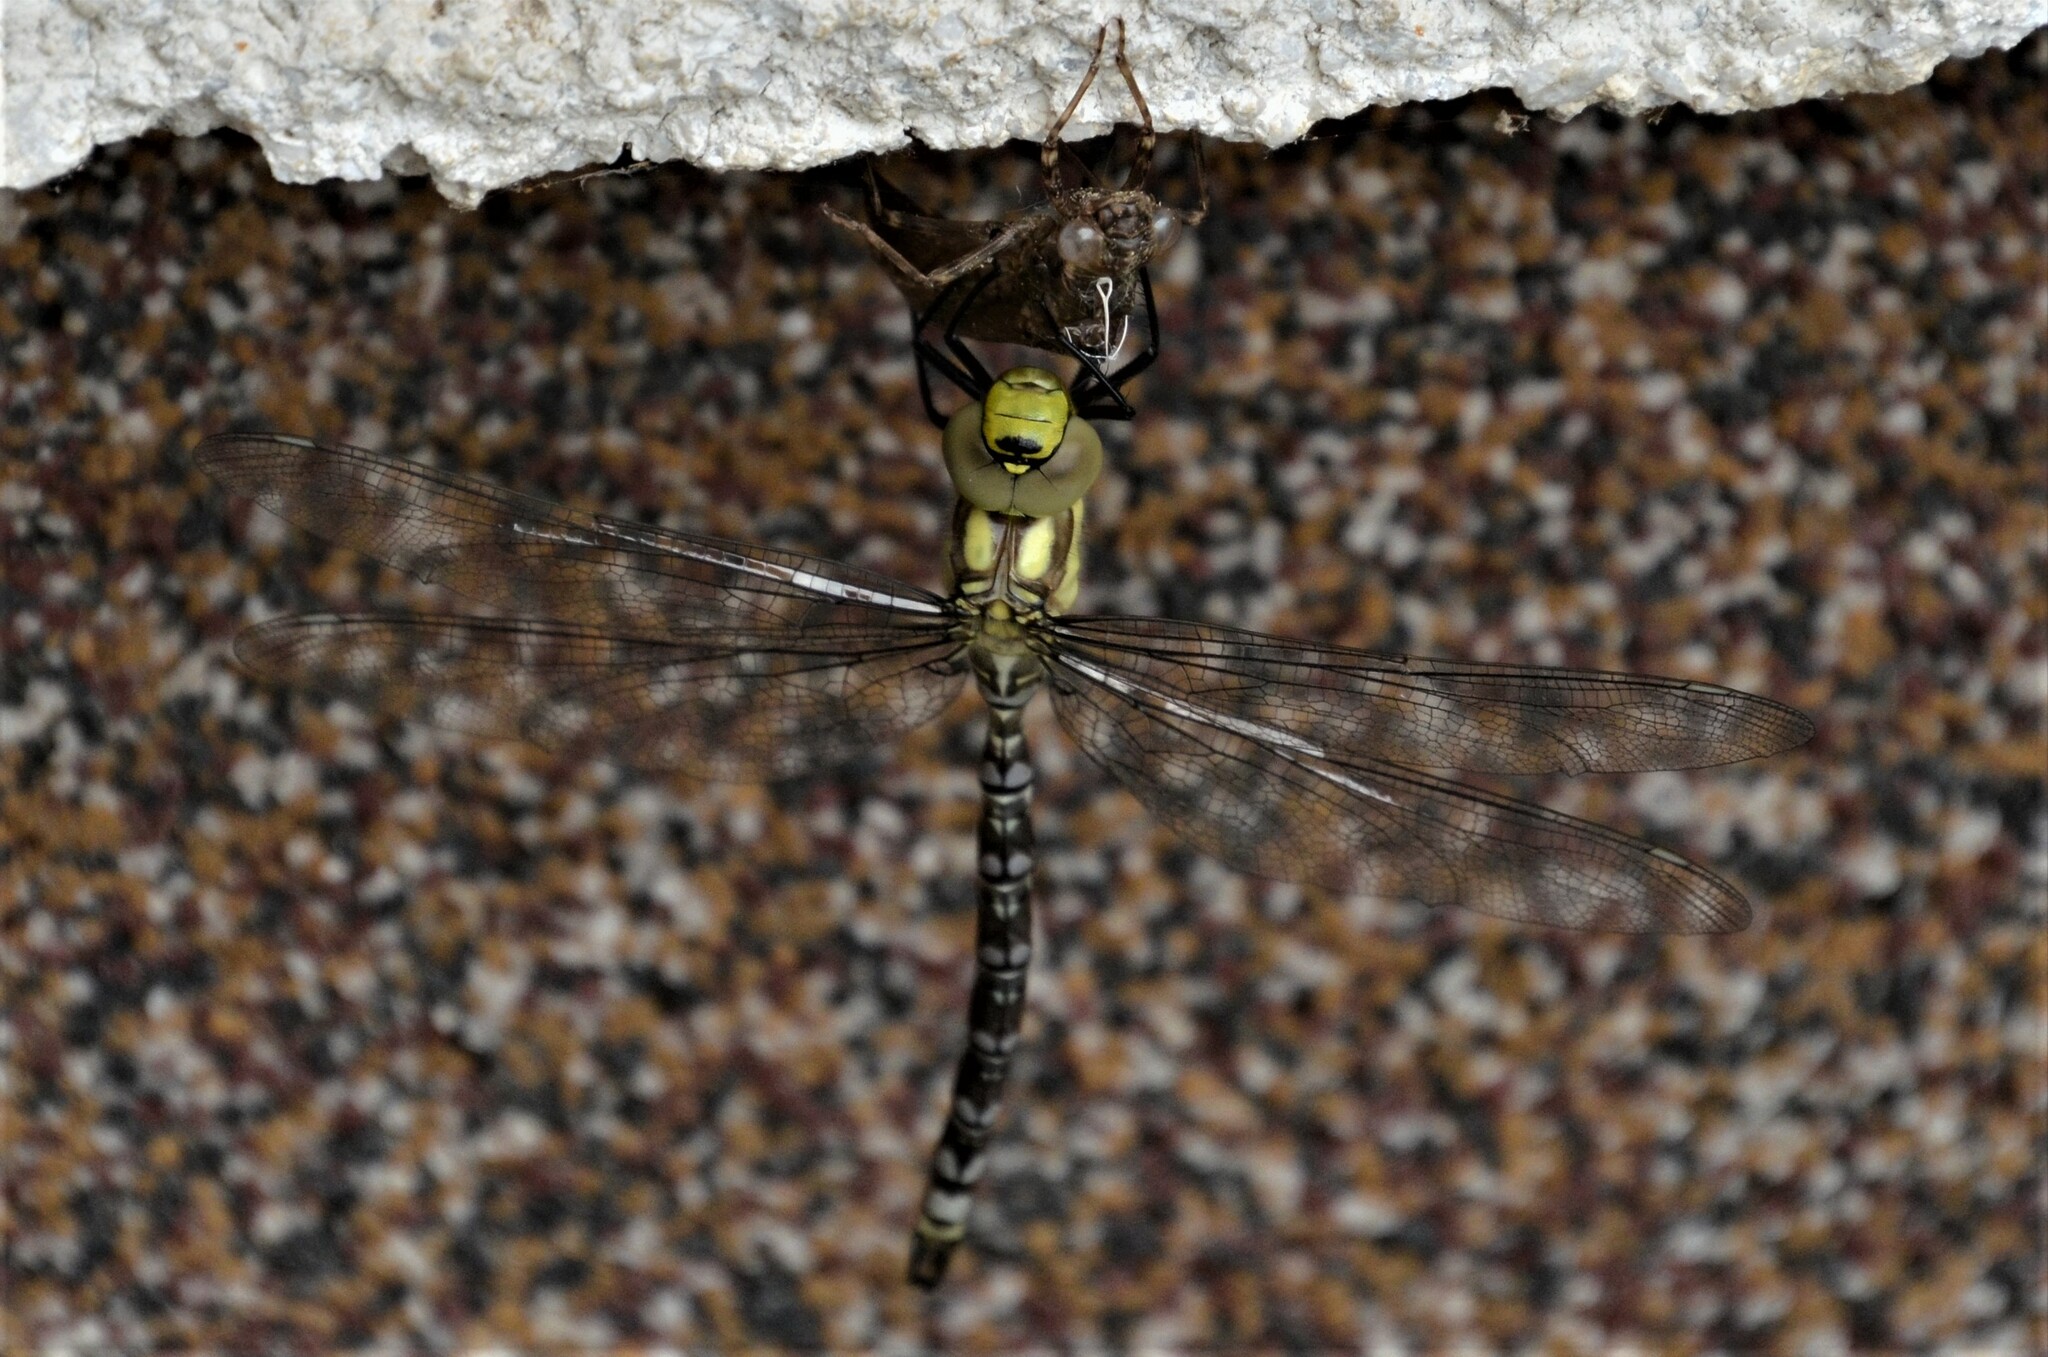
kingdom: Animalia
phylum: Arthropoda
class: Insecta
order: Odonata
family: Aeshnidae
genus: Aeshna
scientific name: Aeshna cyanea
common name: Southern hawker
